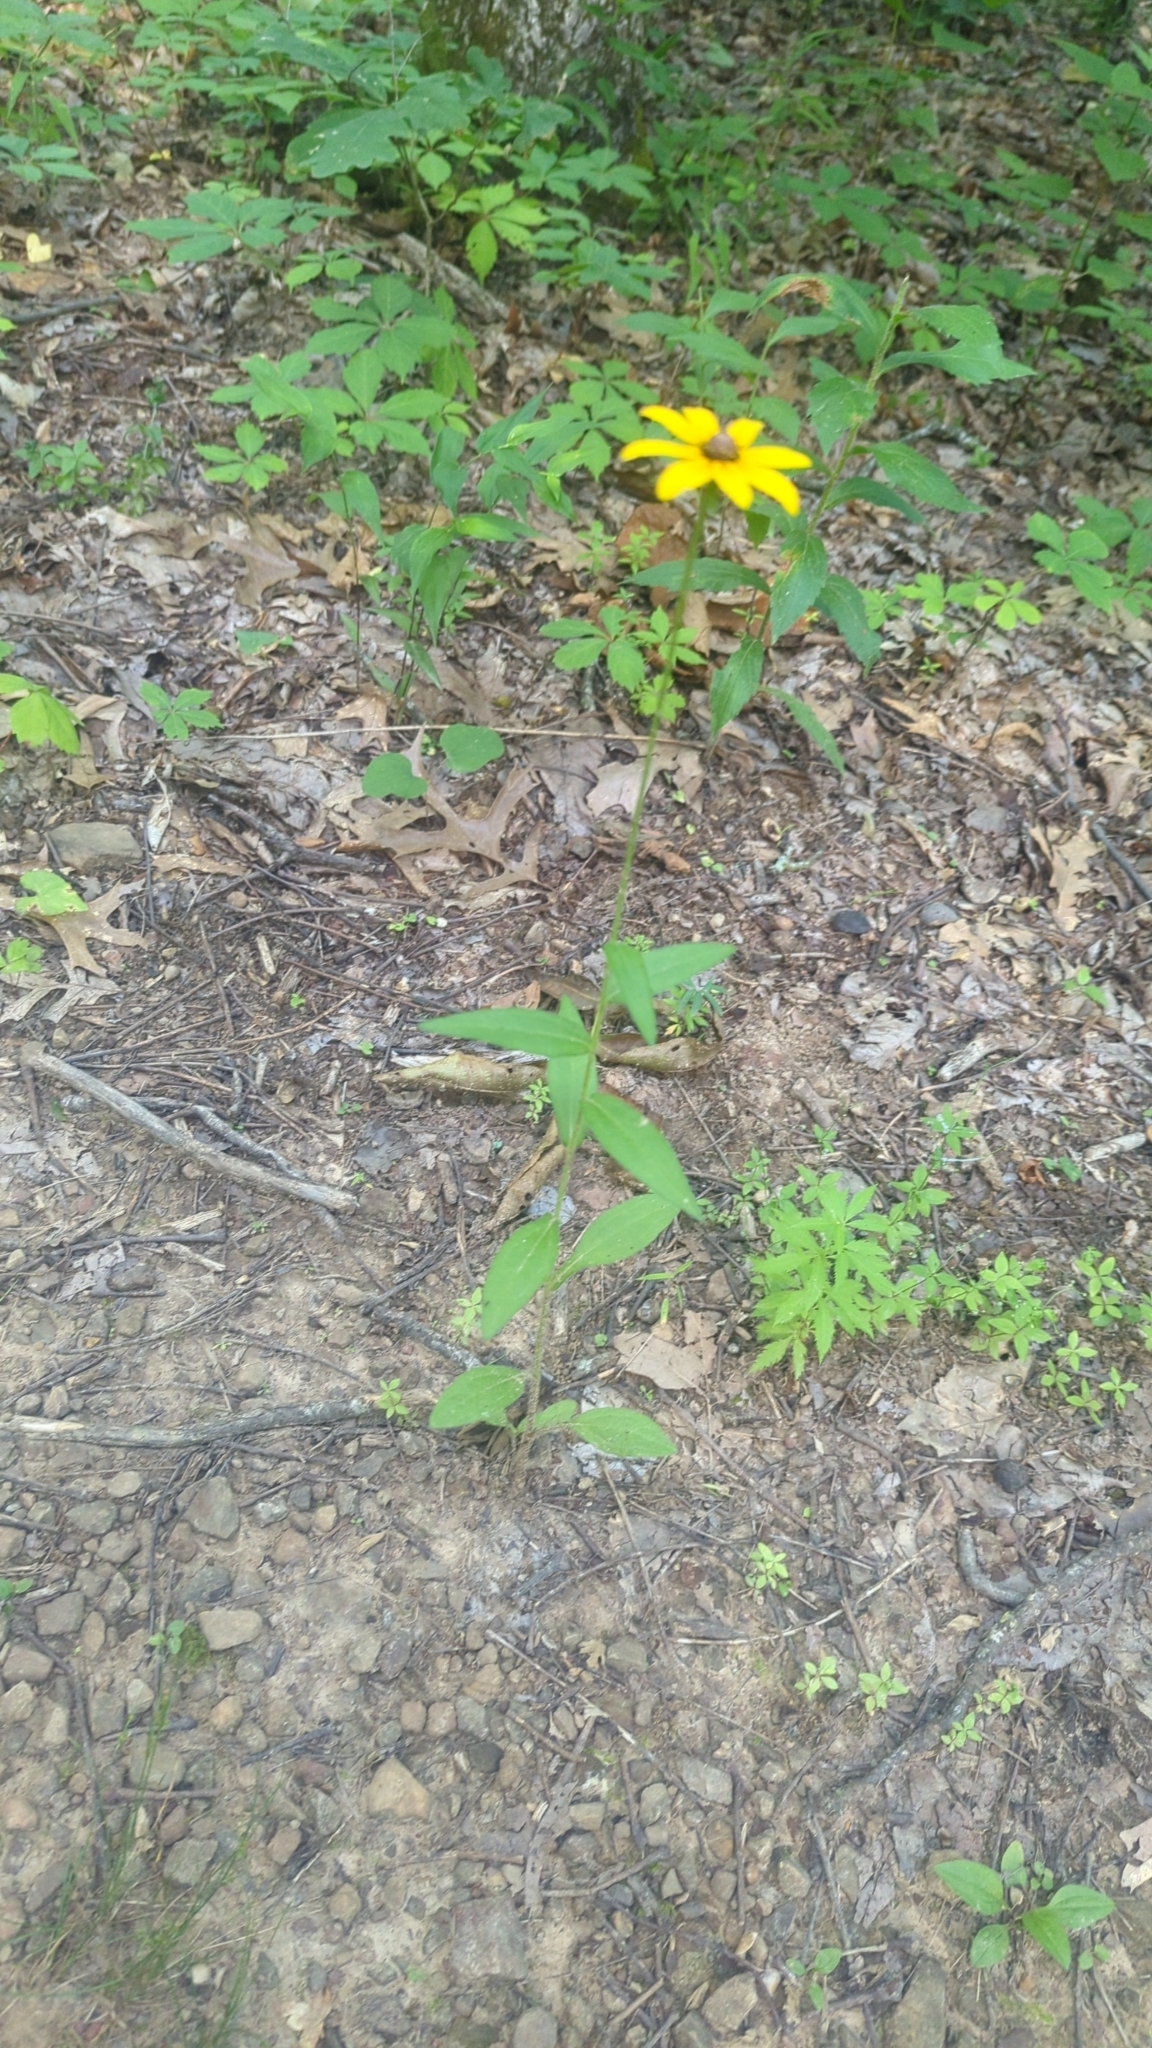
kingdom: Plantae
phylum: Tracheophyta
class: Magnoliopsida
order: Asterales
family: Asteraceae
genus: Rudbeckia
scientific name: Rudbeckia hirta
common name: Black-eyed-susan
